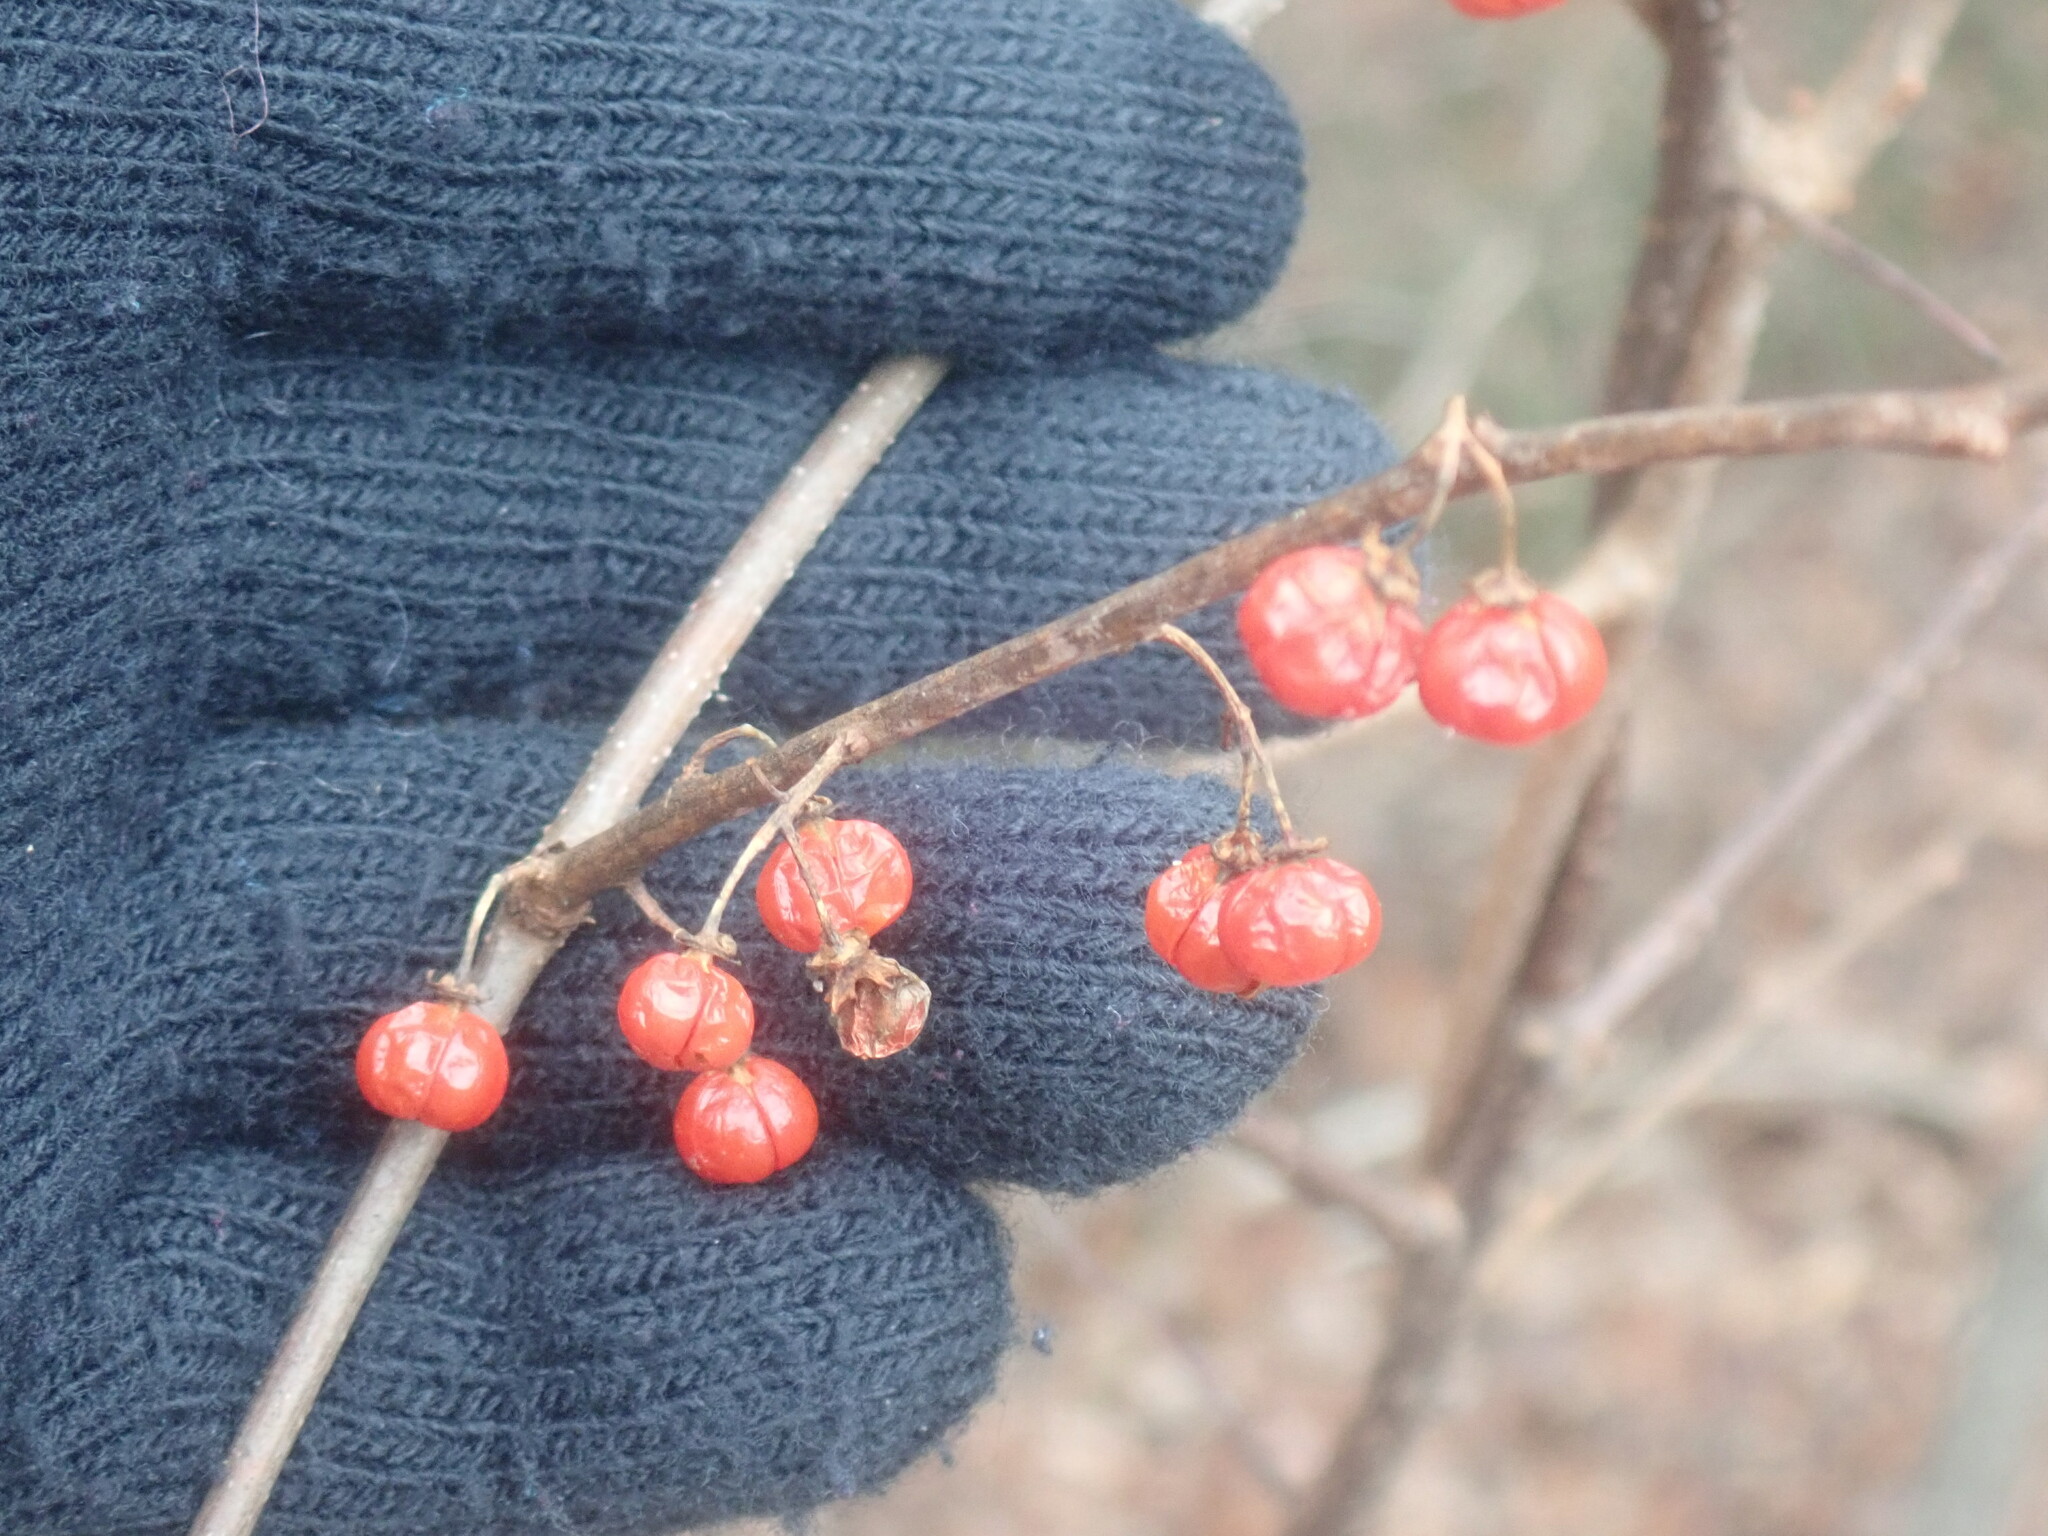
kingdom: Plantae
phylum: Tracheophyta
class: Magnoliopsida
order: Celastrales
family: Celastraceae
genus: Celastrus
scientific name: Celastrus orbiculatus
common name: Oriental bittersweet
